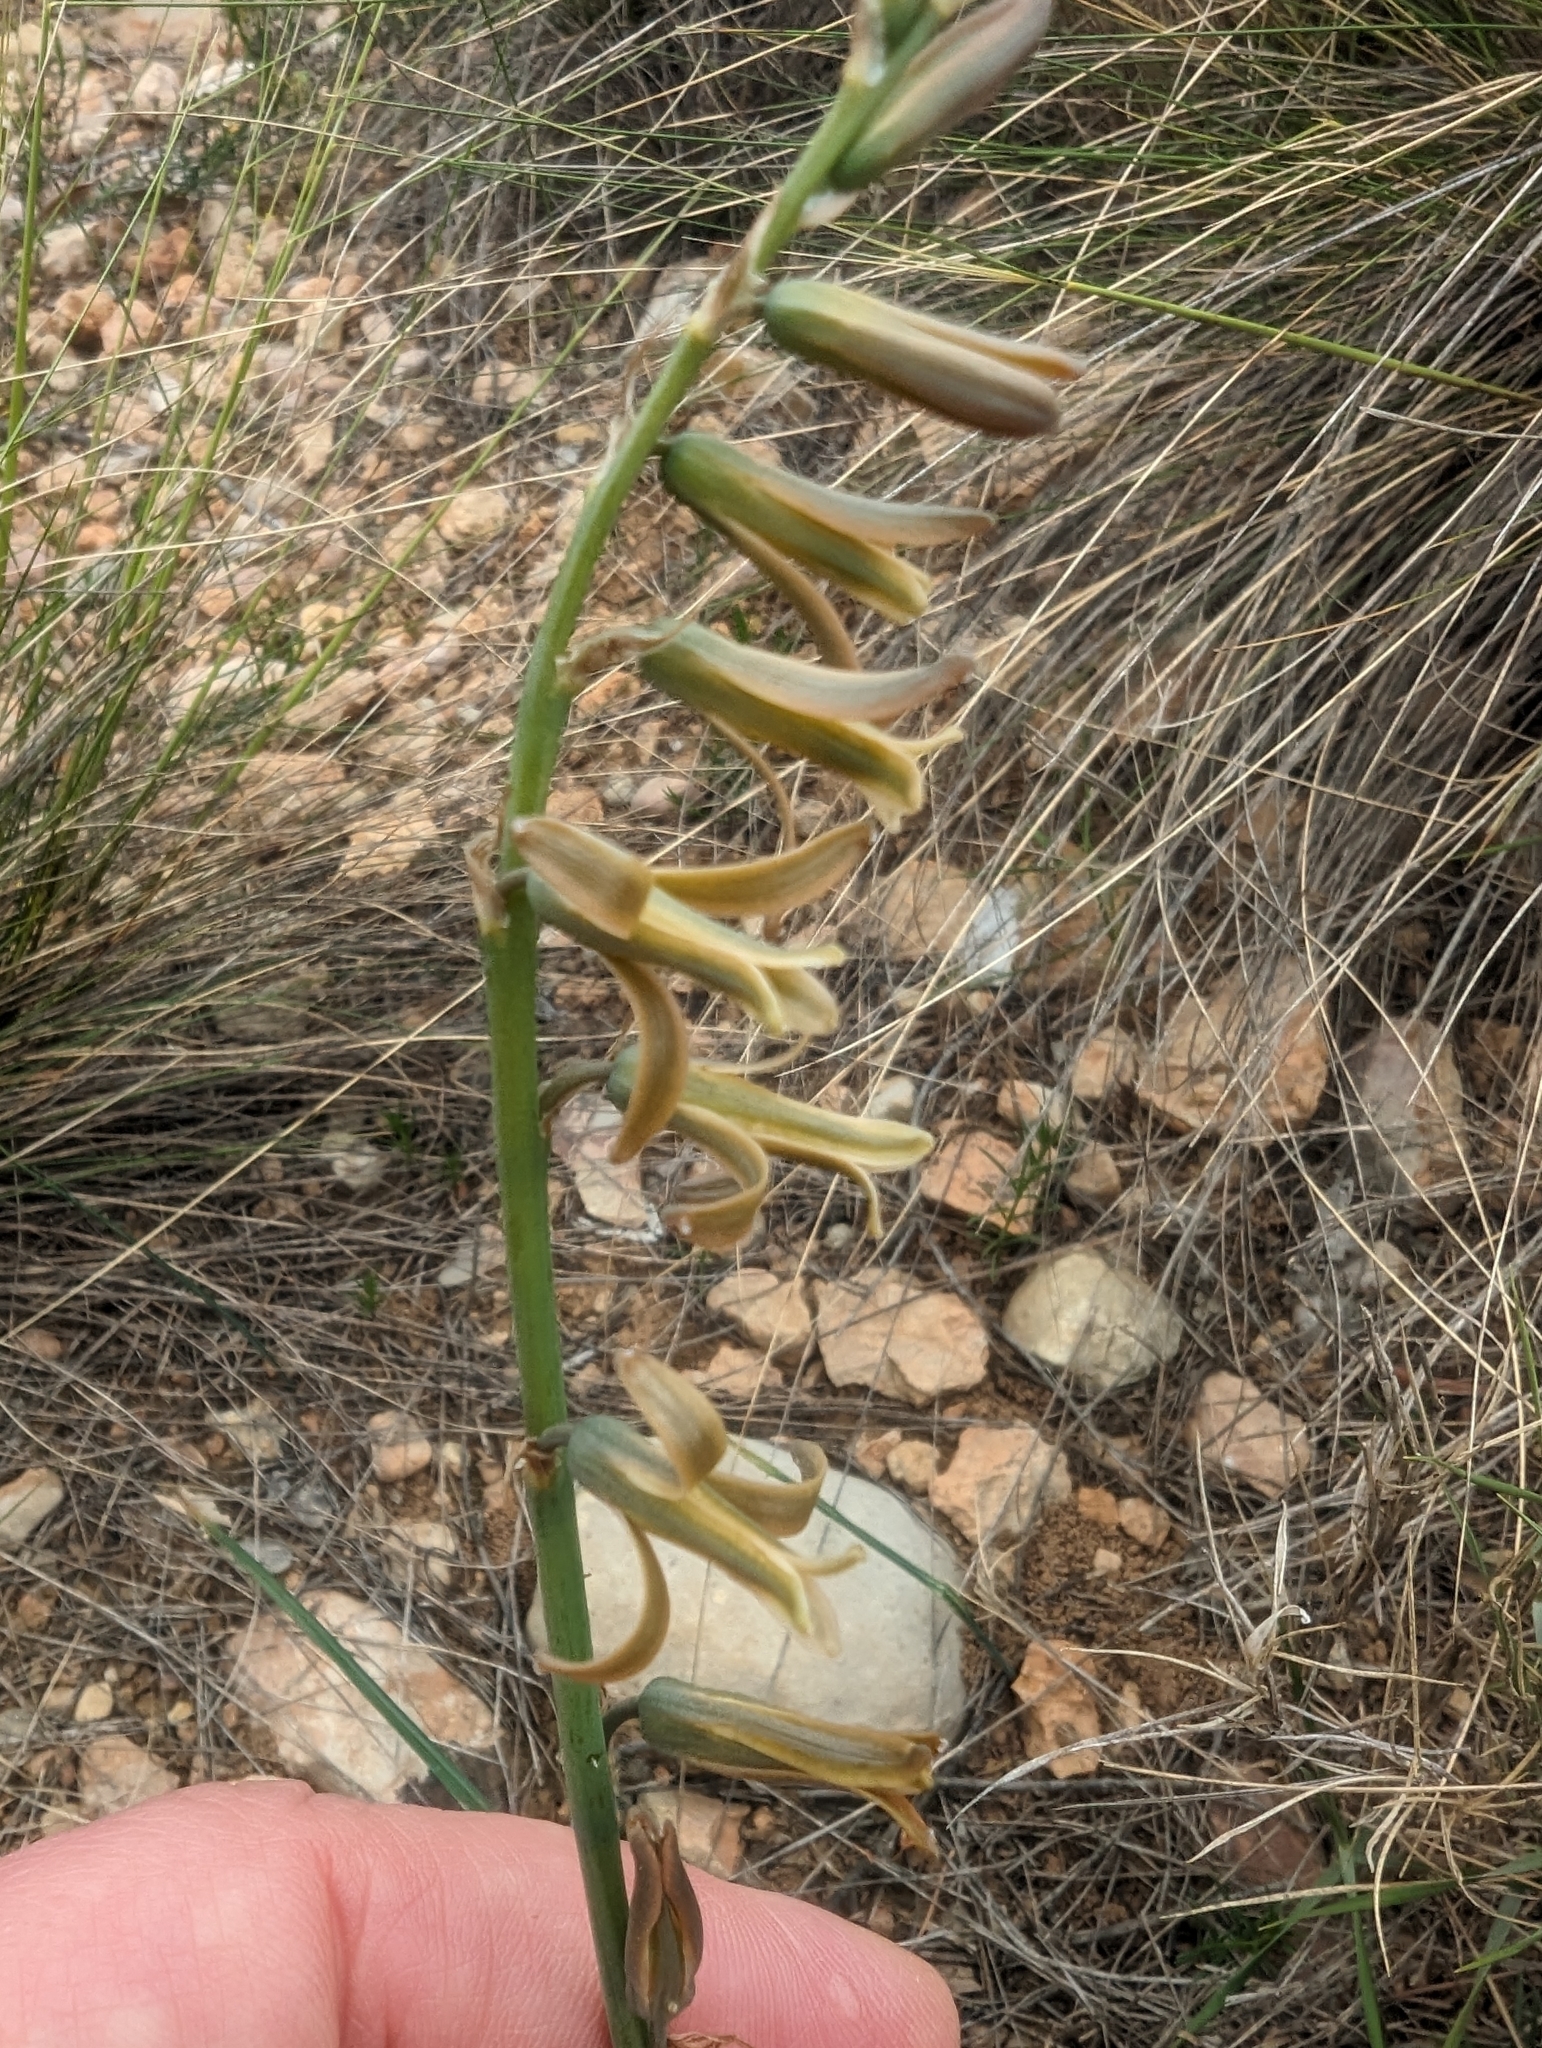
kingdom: Plantae
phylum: Tracheophyta
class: Liliopsida
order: Asparagales
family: Asparagaceae
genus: Dipcadi
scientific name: Dipcadi serotinum
